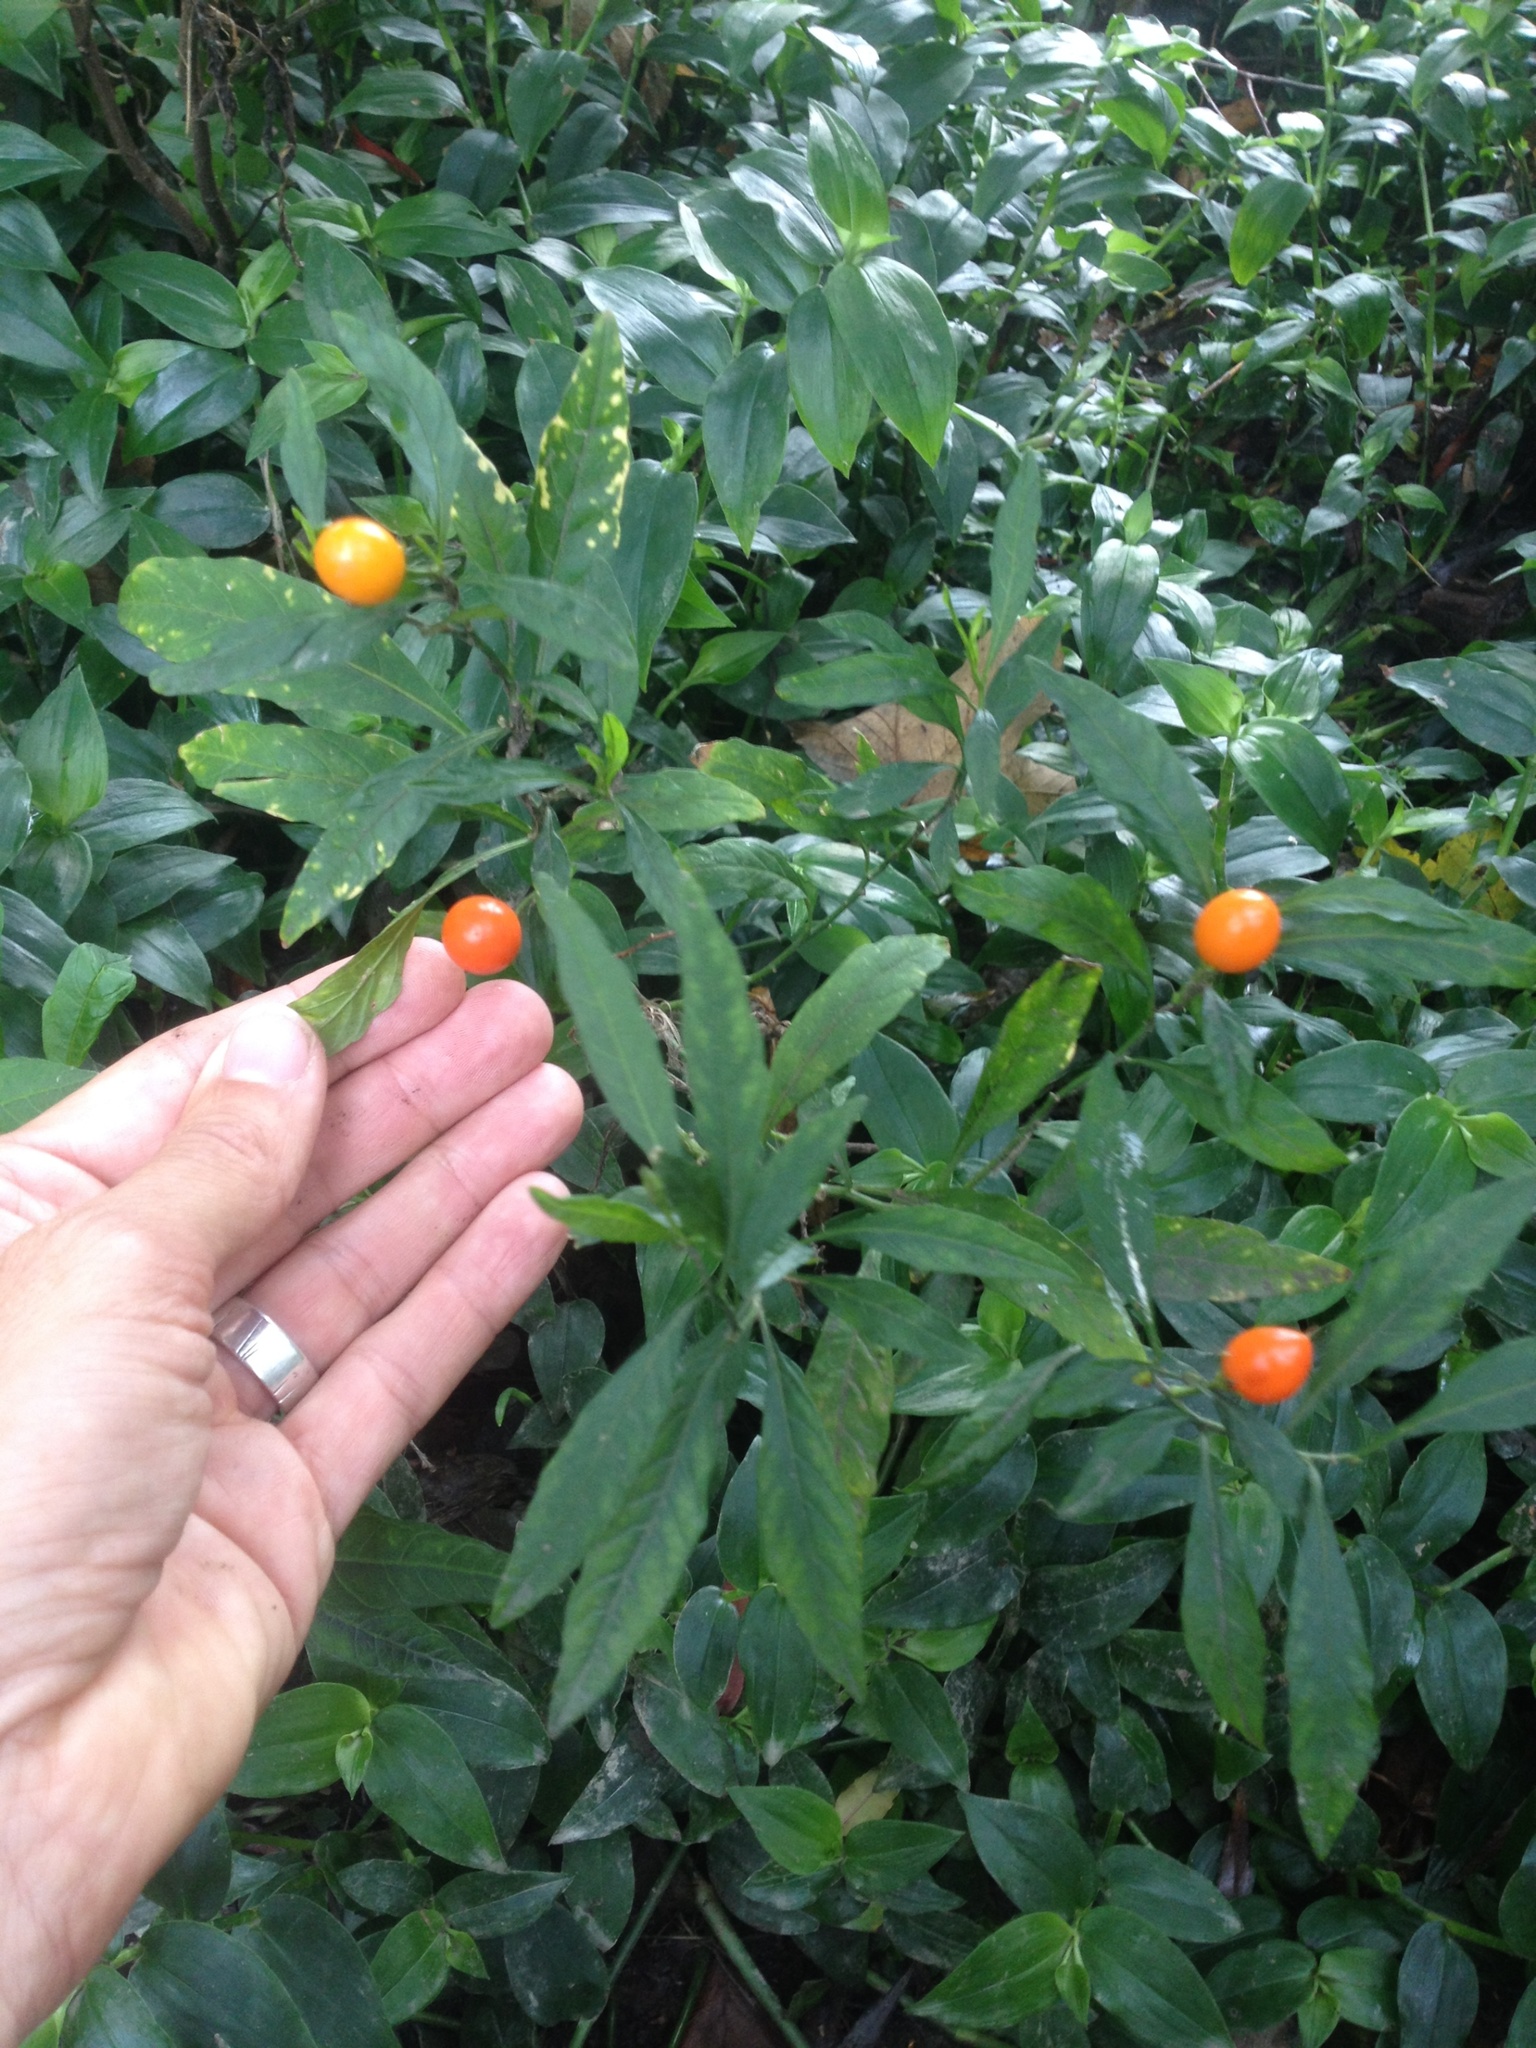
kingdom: Plantae
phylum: Tracheophyta
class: Magnoliopsida
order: Solanales
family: Solanaceae
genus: Solanum
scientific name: Solanum pseudocapsicum
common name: Jerusalem cherry
